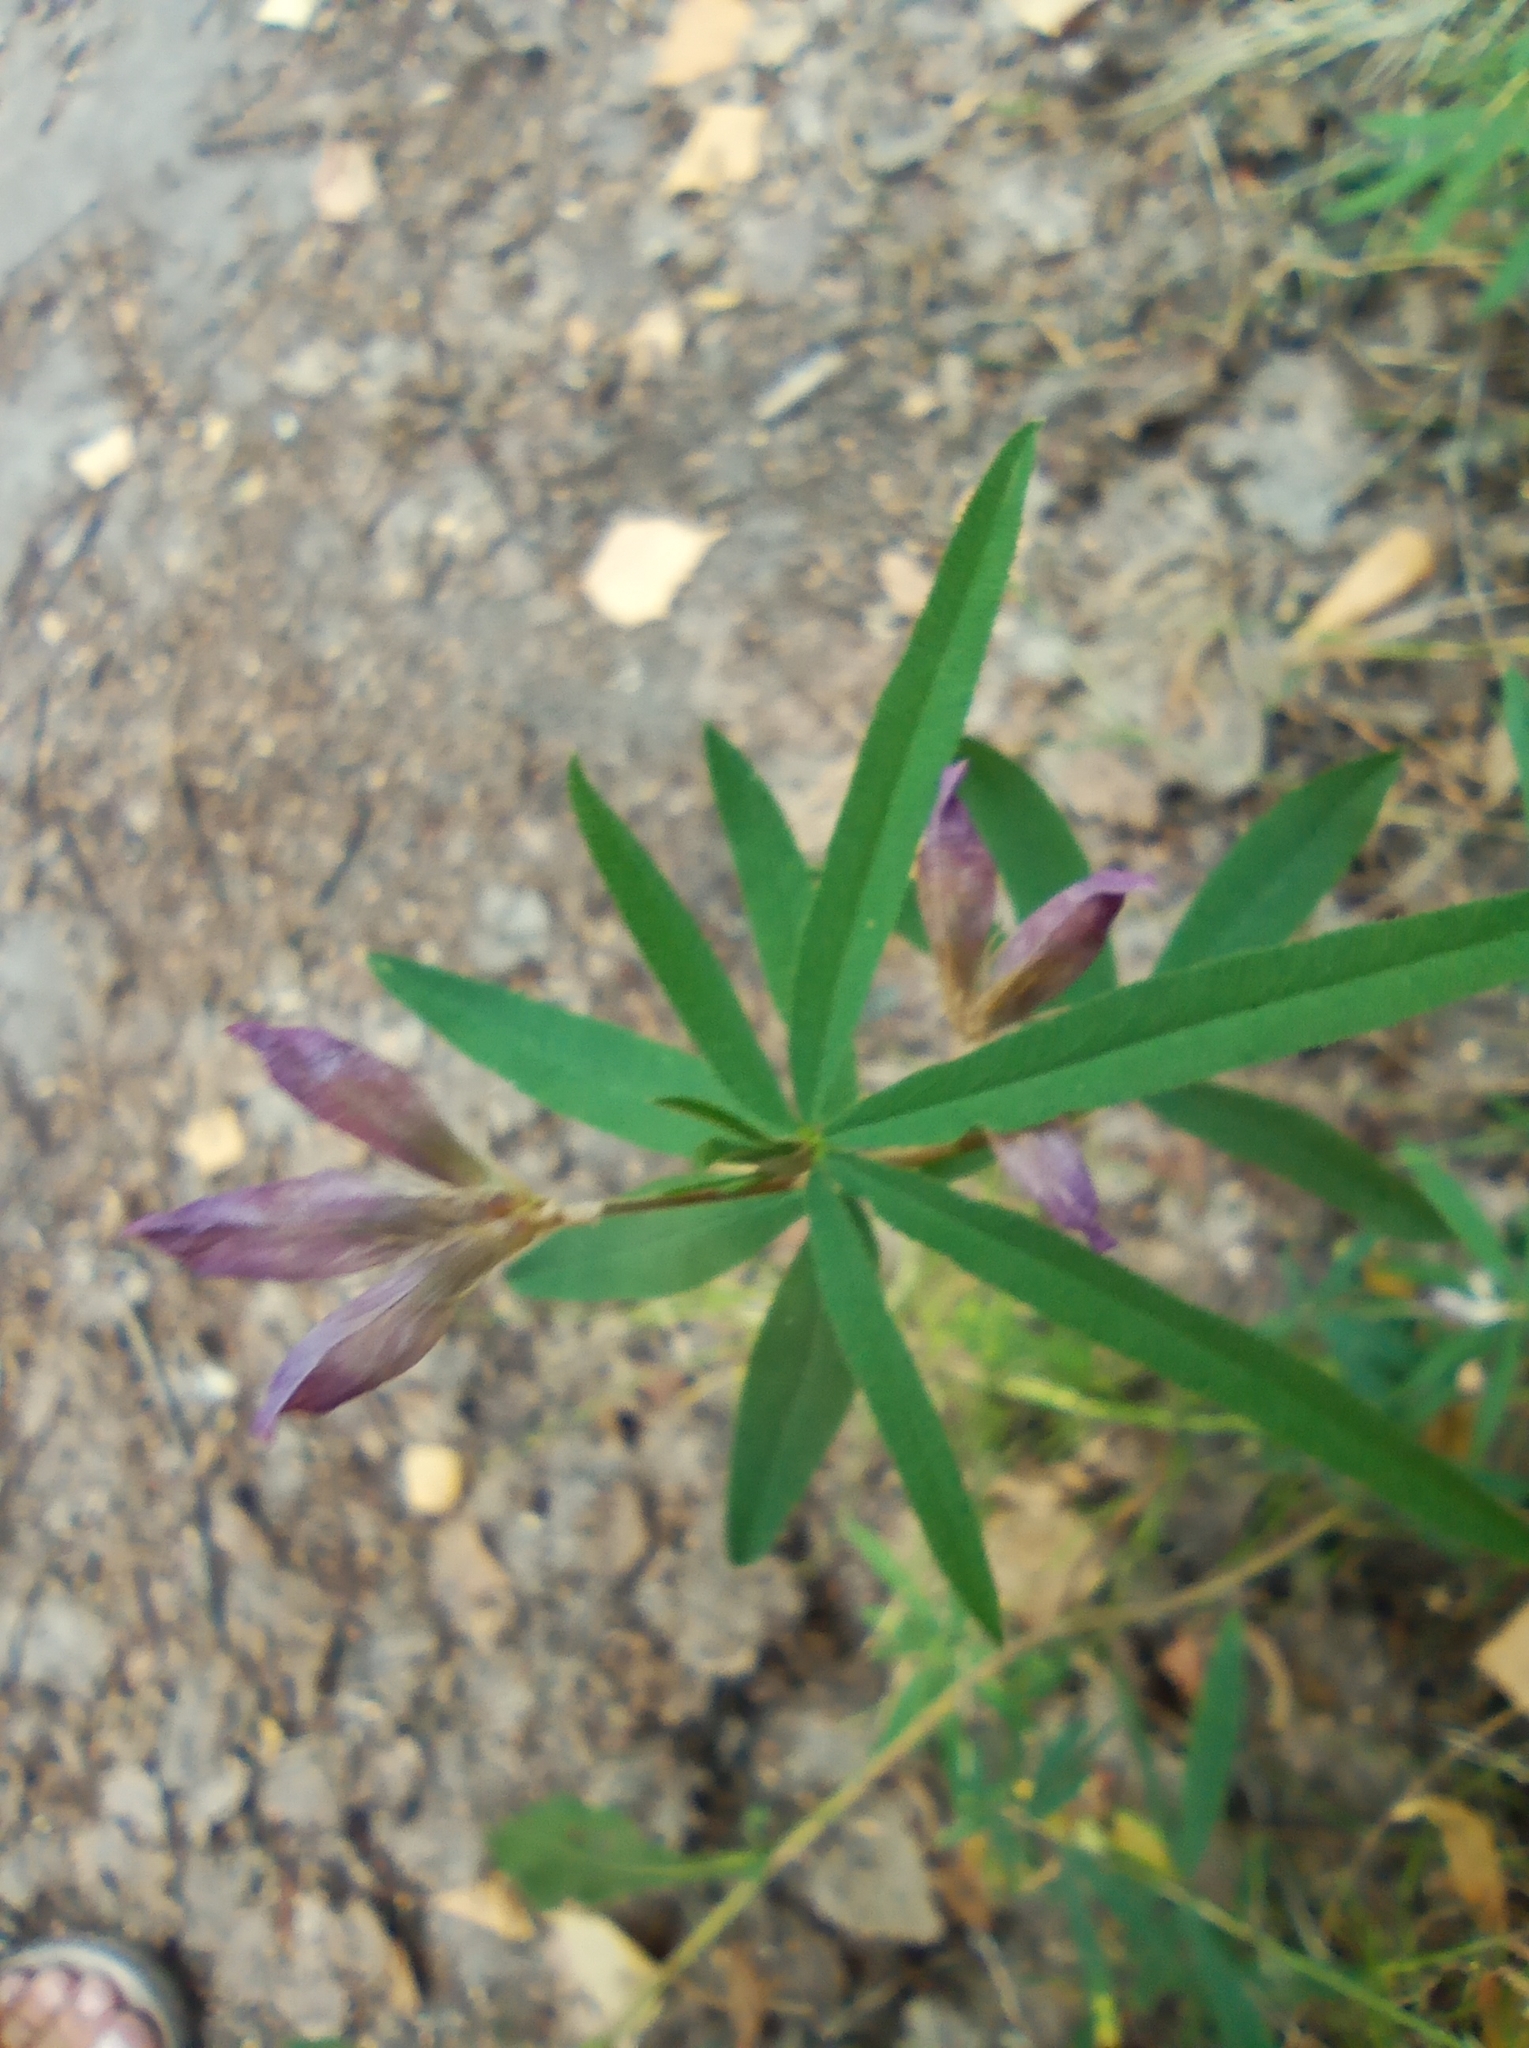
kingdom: Plantae
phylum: Tracheophyta
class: Magnoliopsida
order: Fabales
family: Fabaceae
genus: Trifolium
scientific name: Trifolium lupinaster
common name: Lupine clover
